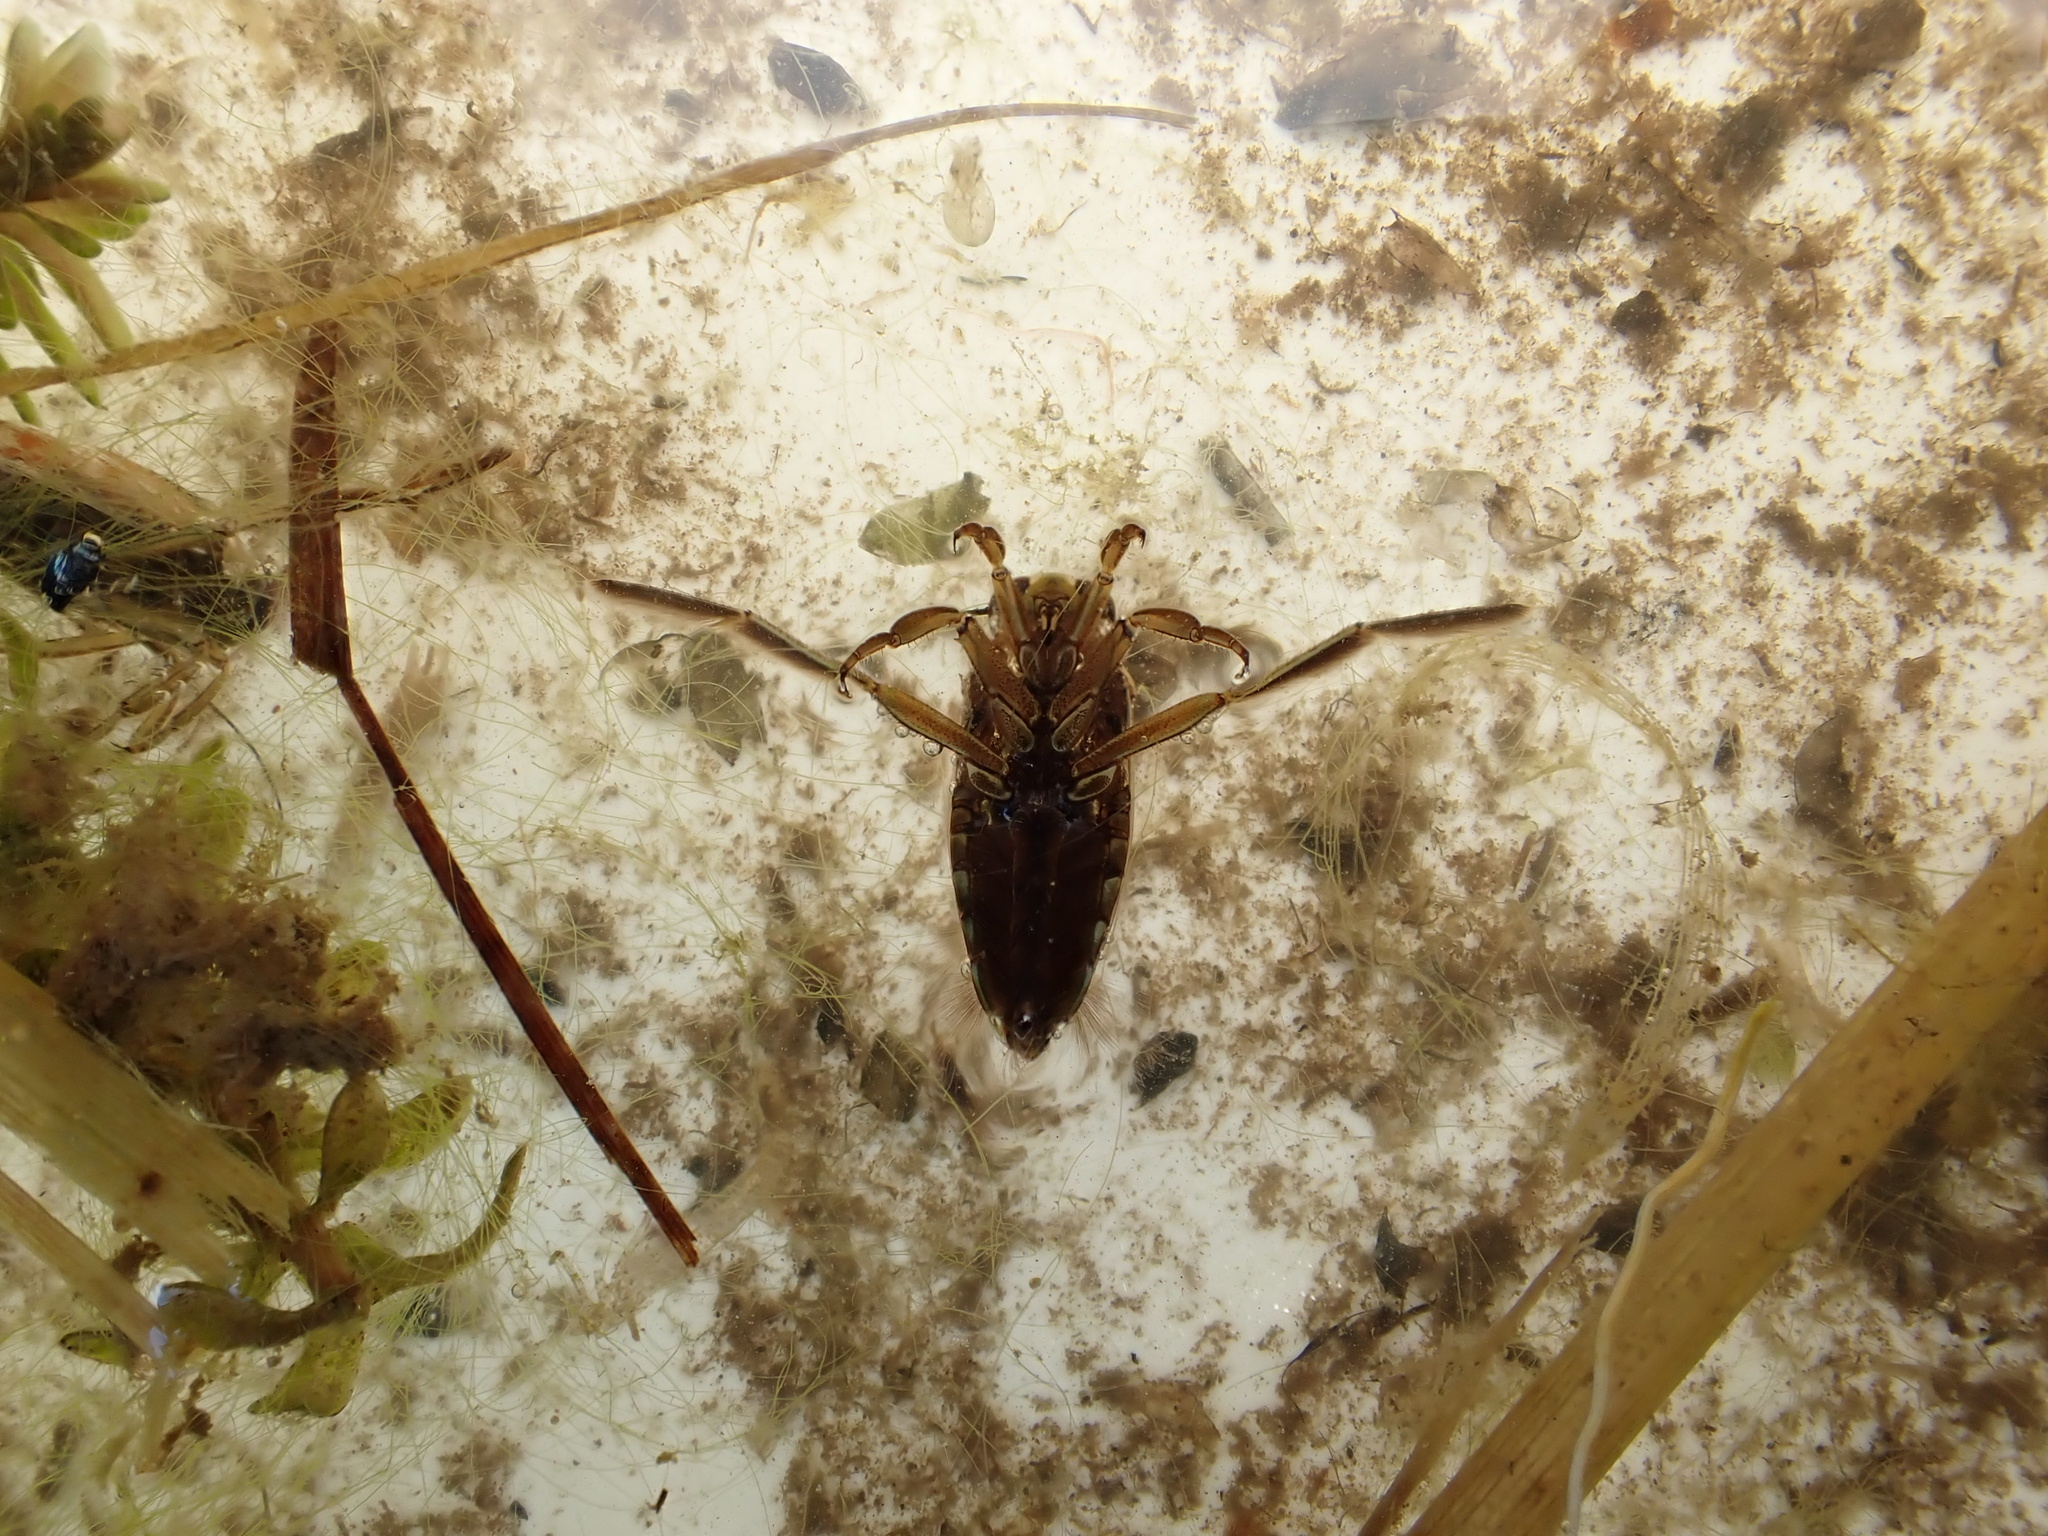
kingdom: Animalia
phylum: Arthropoda
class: Insecta
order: Hemiptera
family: Notonectidae
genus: Notonecta
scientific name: Notonecta
